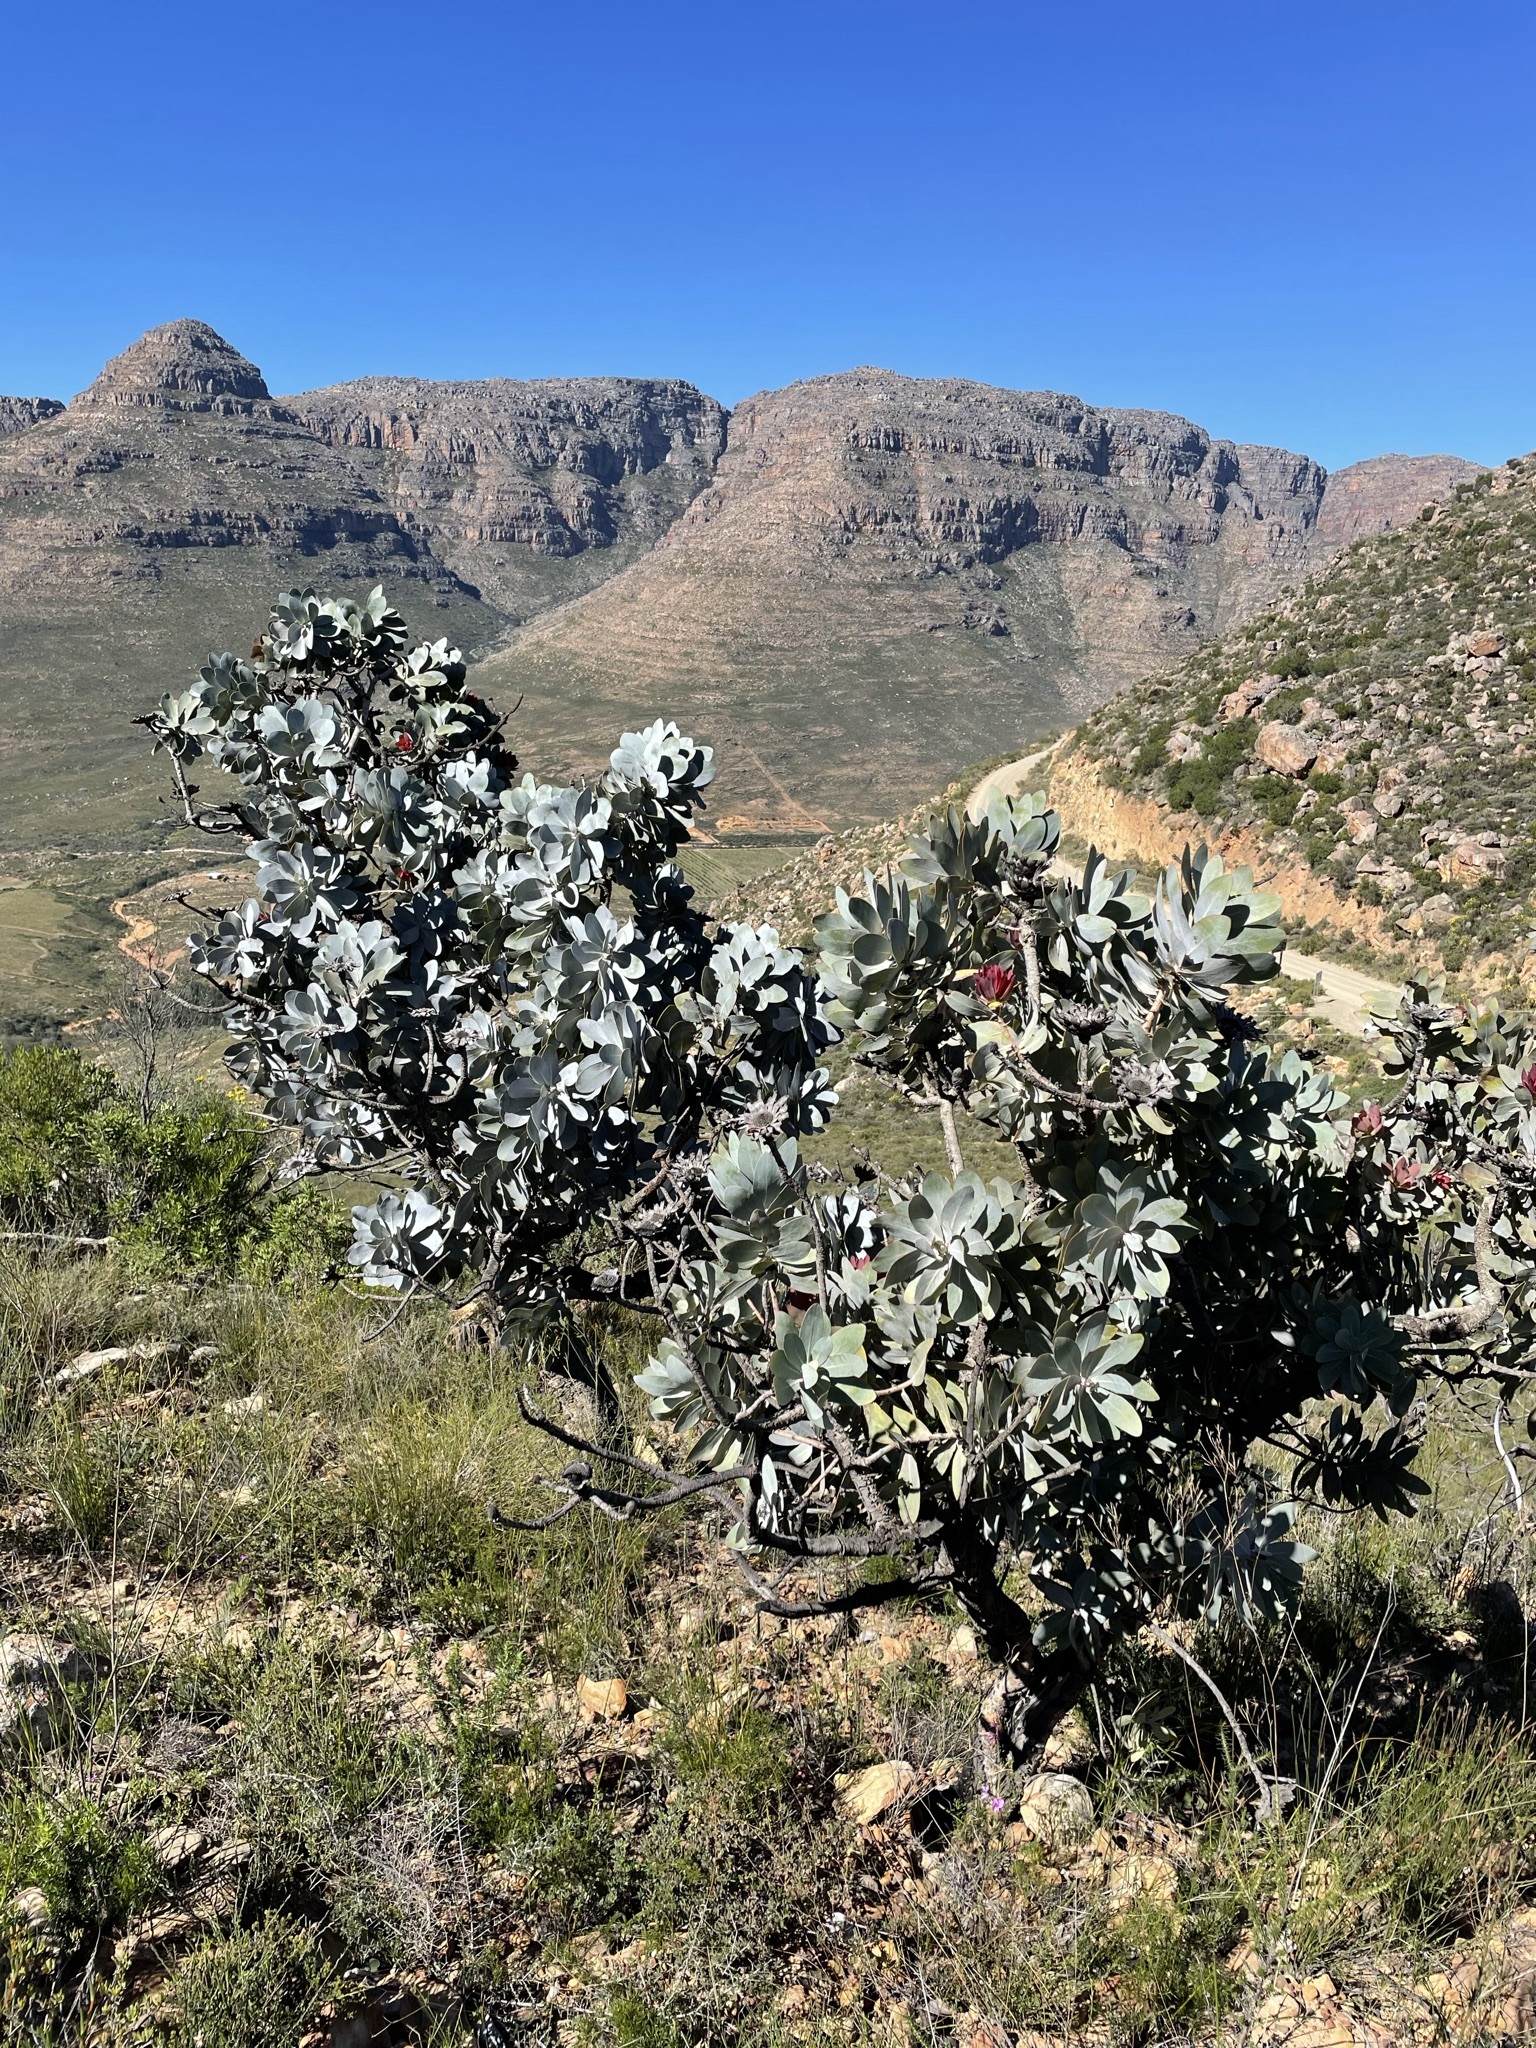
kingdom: Plantae
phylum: Tracheophyta
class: Magnoliopsida
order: Proteales
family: Proteaceae
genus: Protea
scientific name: Protea nitida
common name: Tree protea
